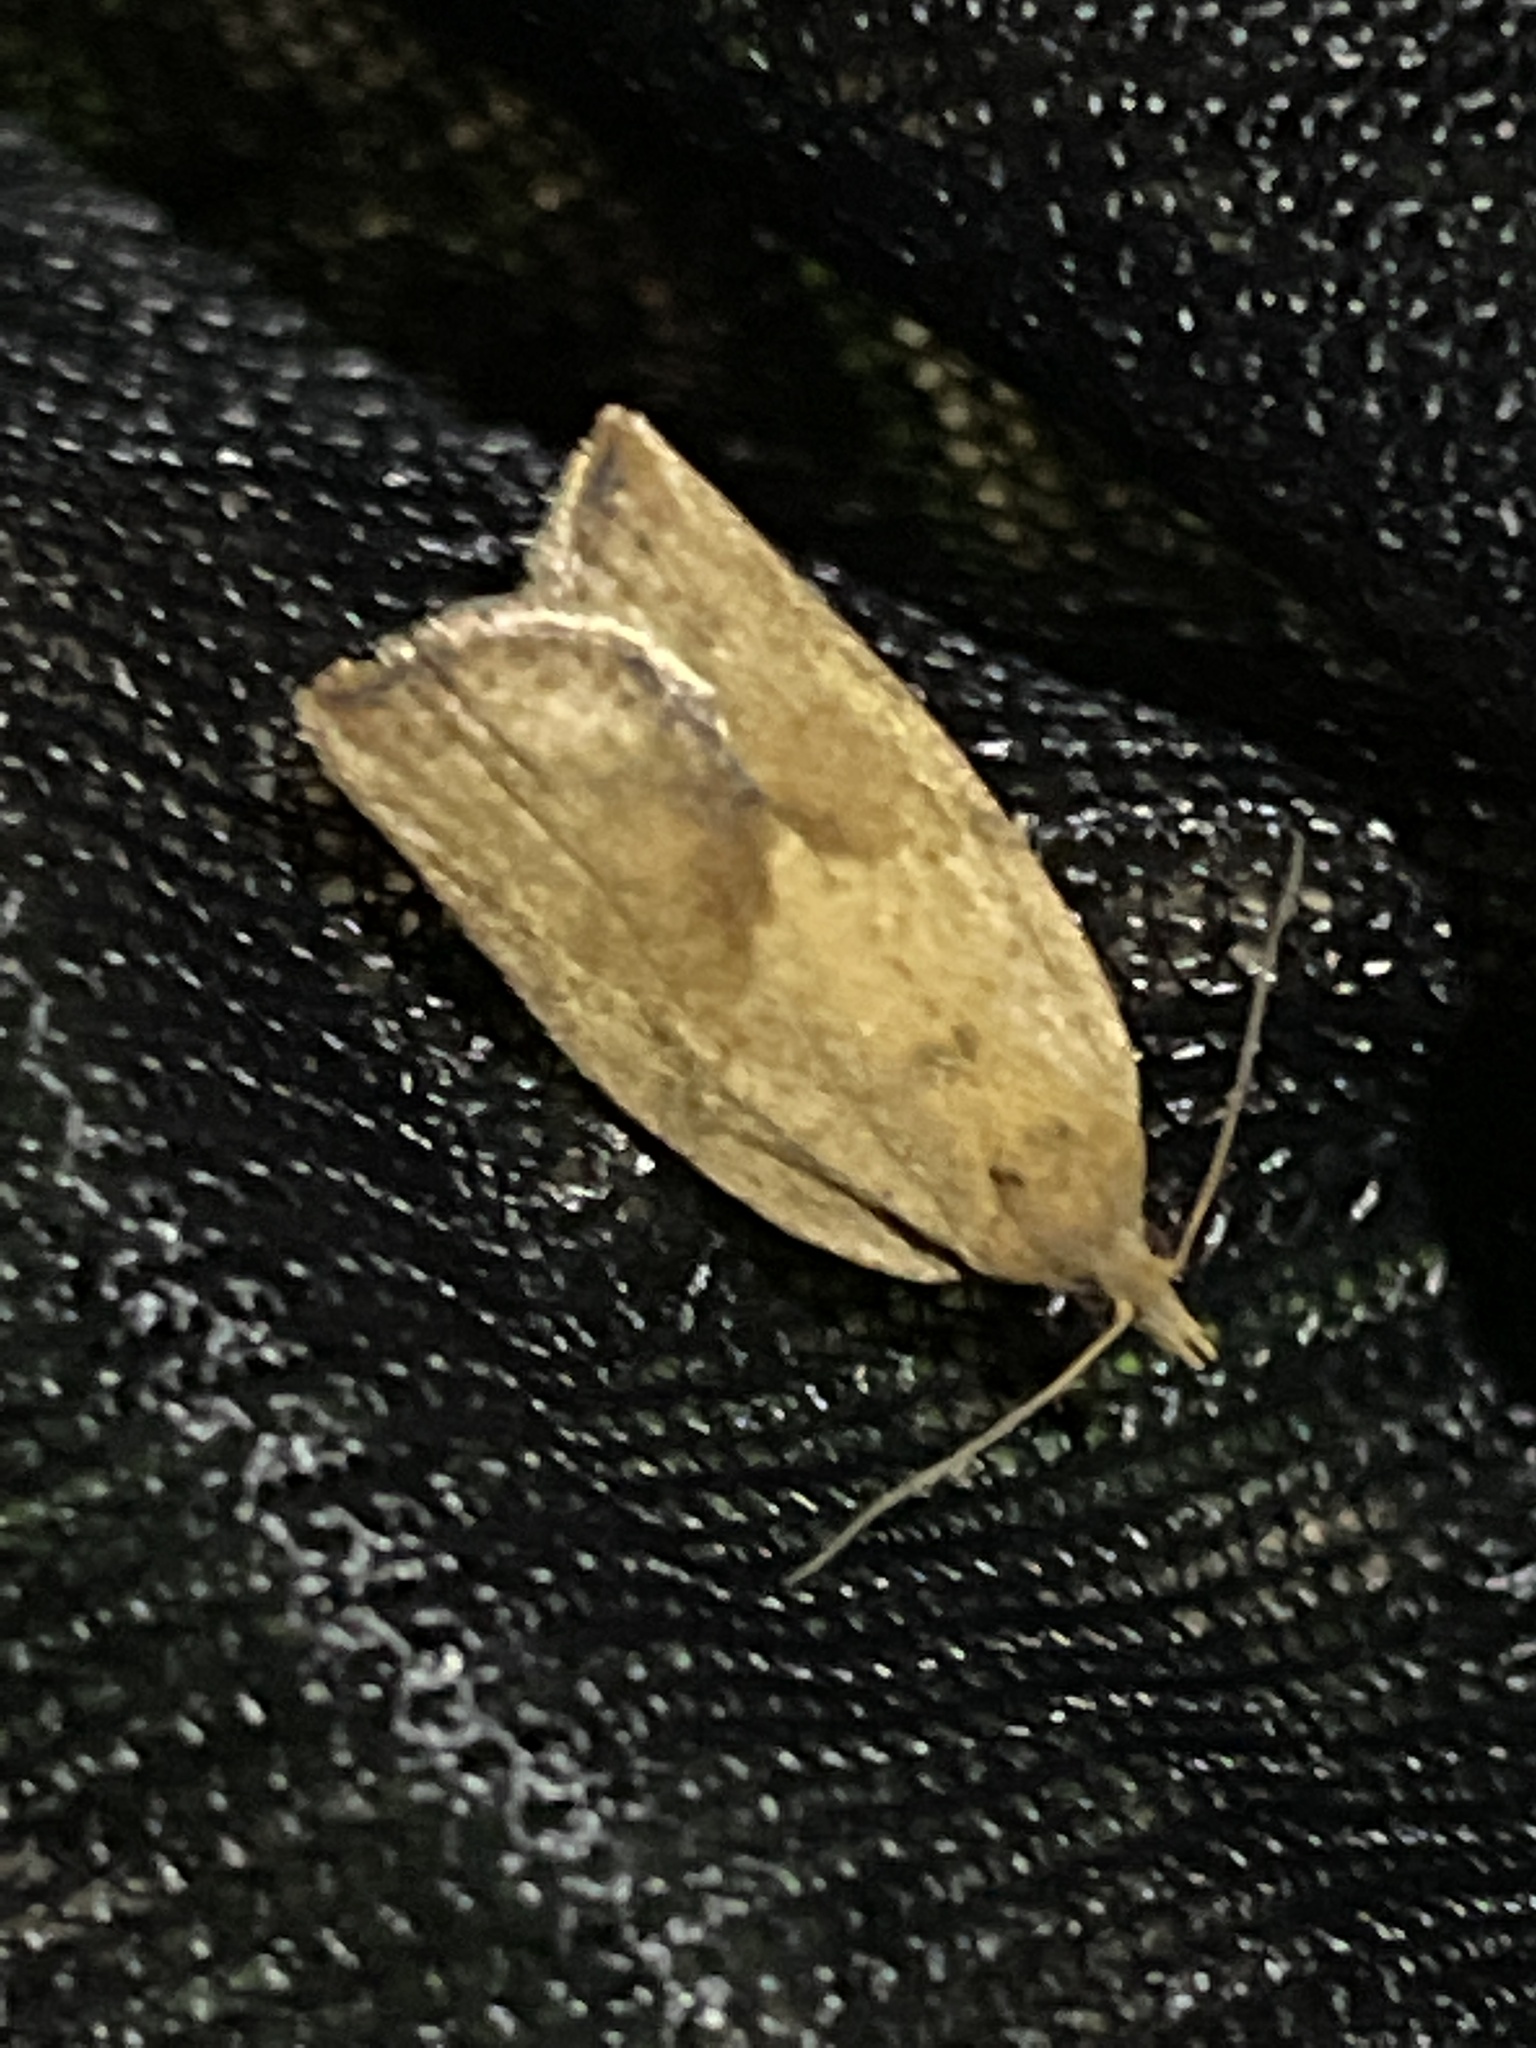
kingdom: Animalia
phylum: Arthropoda
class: Insecta
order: Lepidoptera
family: Tortricidae
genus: Epiphyas
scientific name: Epiphyas postvittana
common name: Light brown apple moth
